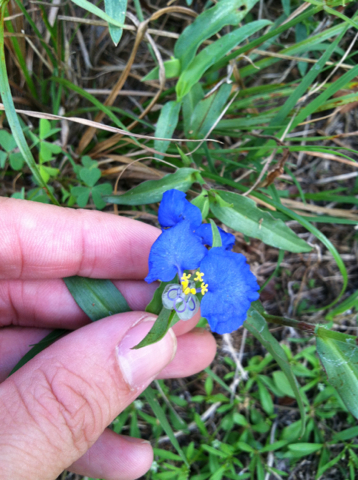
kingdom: Plantae
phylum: Tracheophyta
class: Liliopsida
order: Commelinales
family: Commelinaceae
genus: Commelina
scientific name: Commelina erecta
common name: Blousel blommetjie
